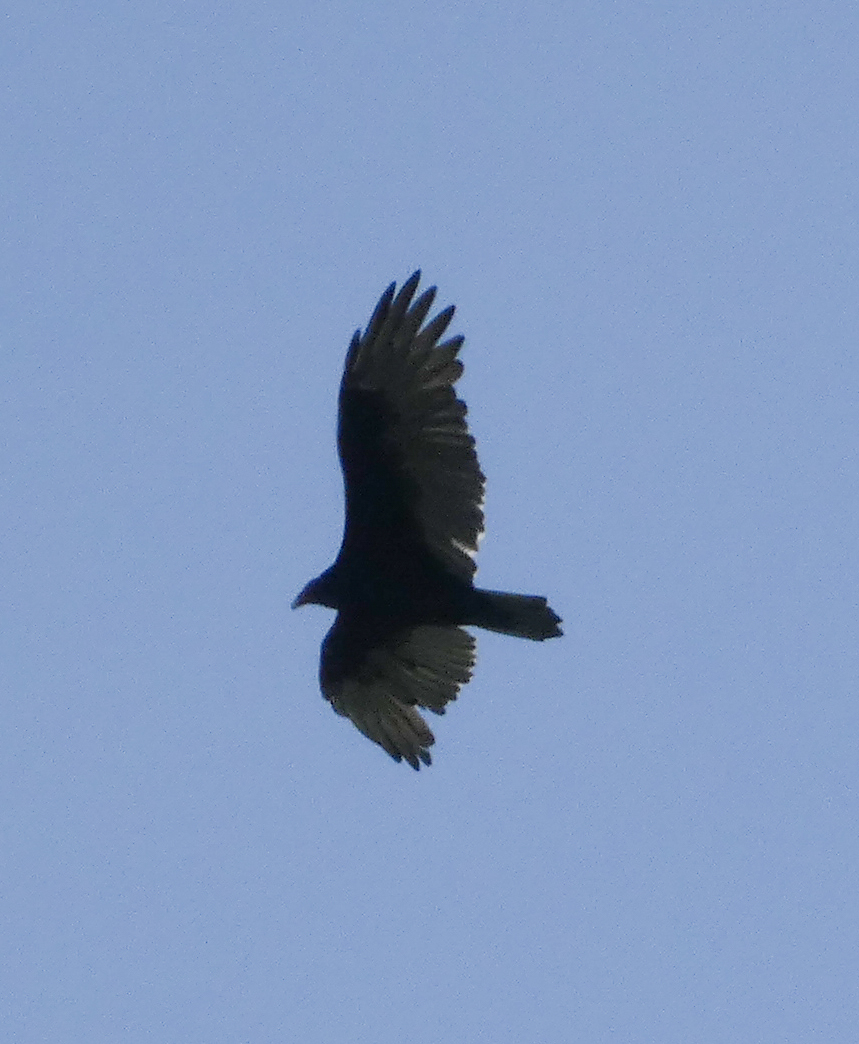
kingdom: Animalia
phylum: Chordata
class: Aves
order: Accipitriformes
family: Cathartidae
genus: Cathartes
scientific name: Cathartes aura
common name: Turkey vulture
